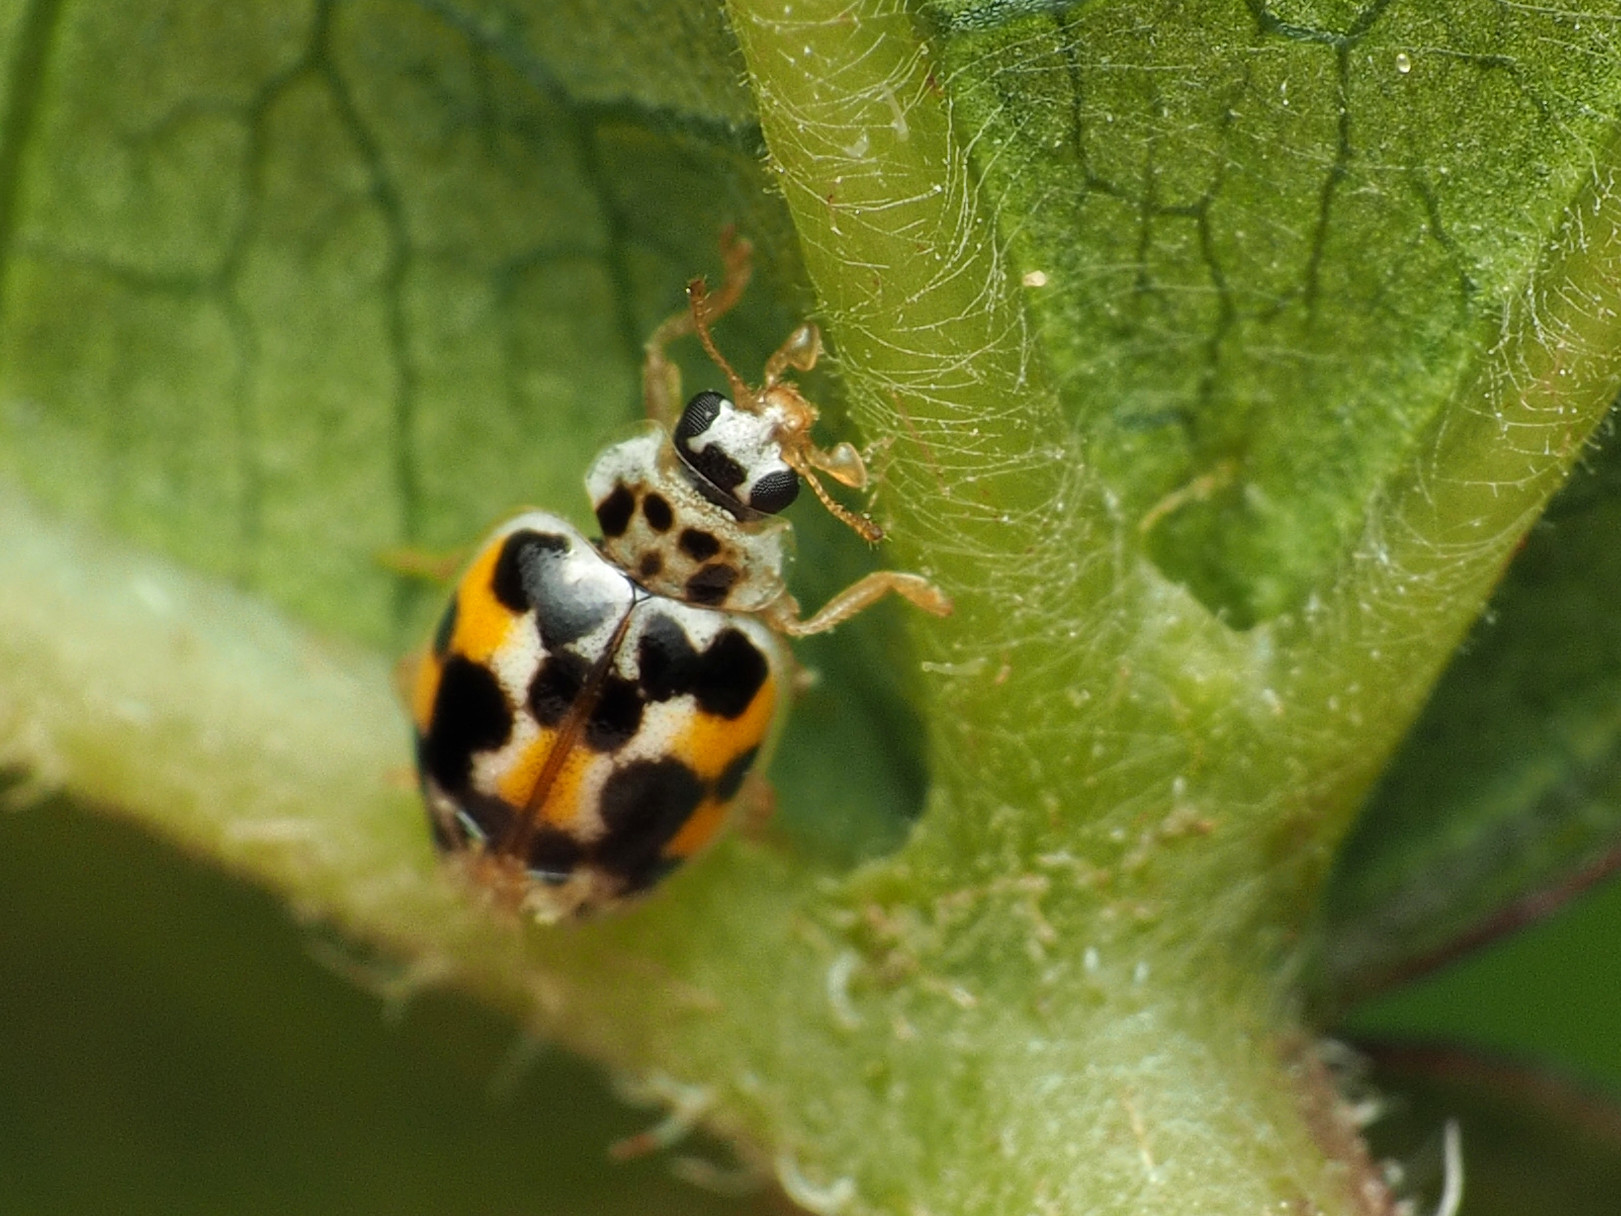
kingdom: Animalia
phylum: Arthropoda
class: Insecta
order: Coleoptera
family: Coccinellidae
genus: Psyllobora
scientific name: Psyllobora vigintimaculata
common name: Ladybird beetle
